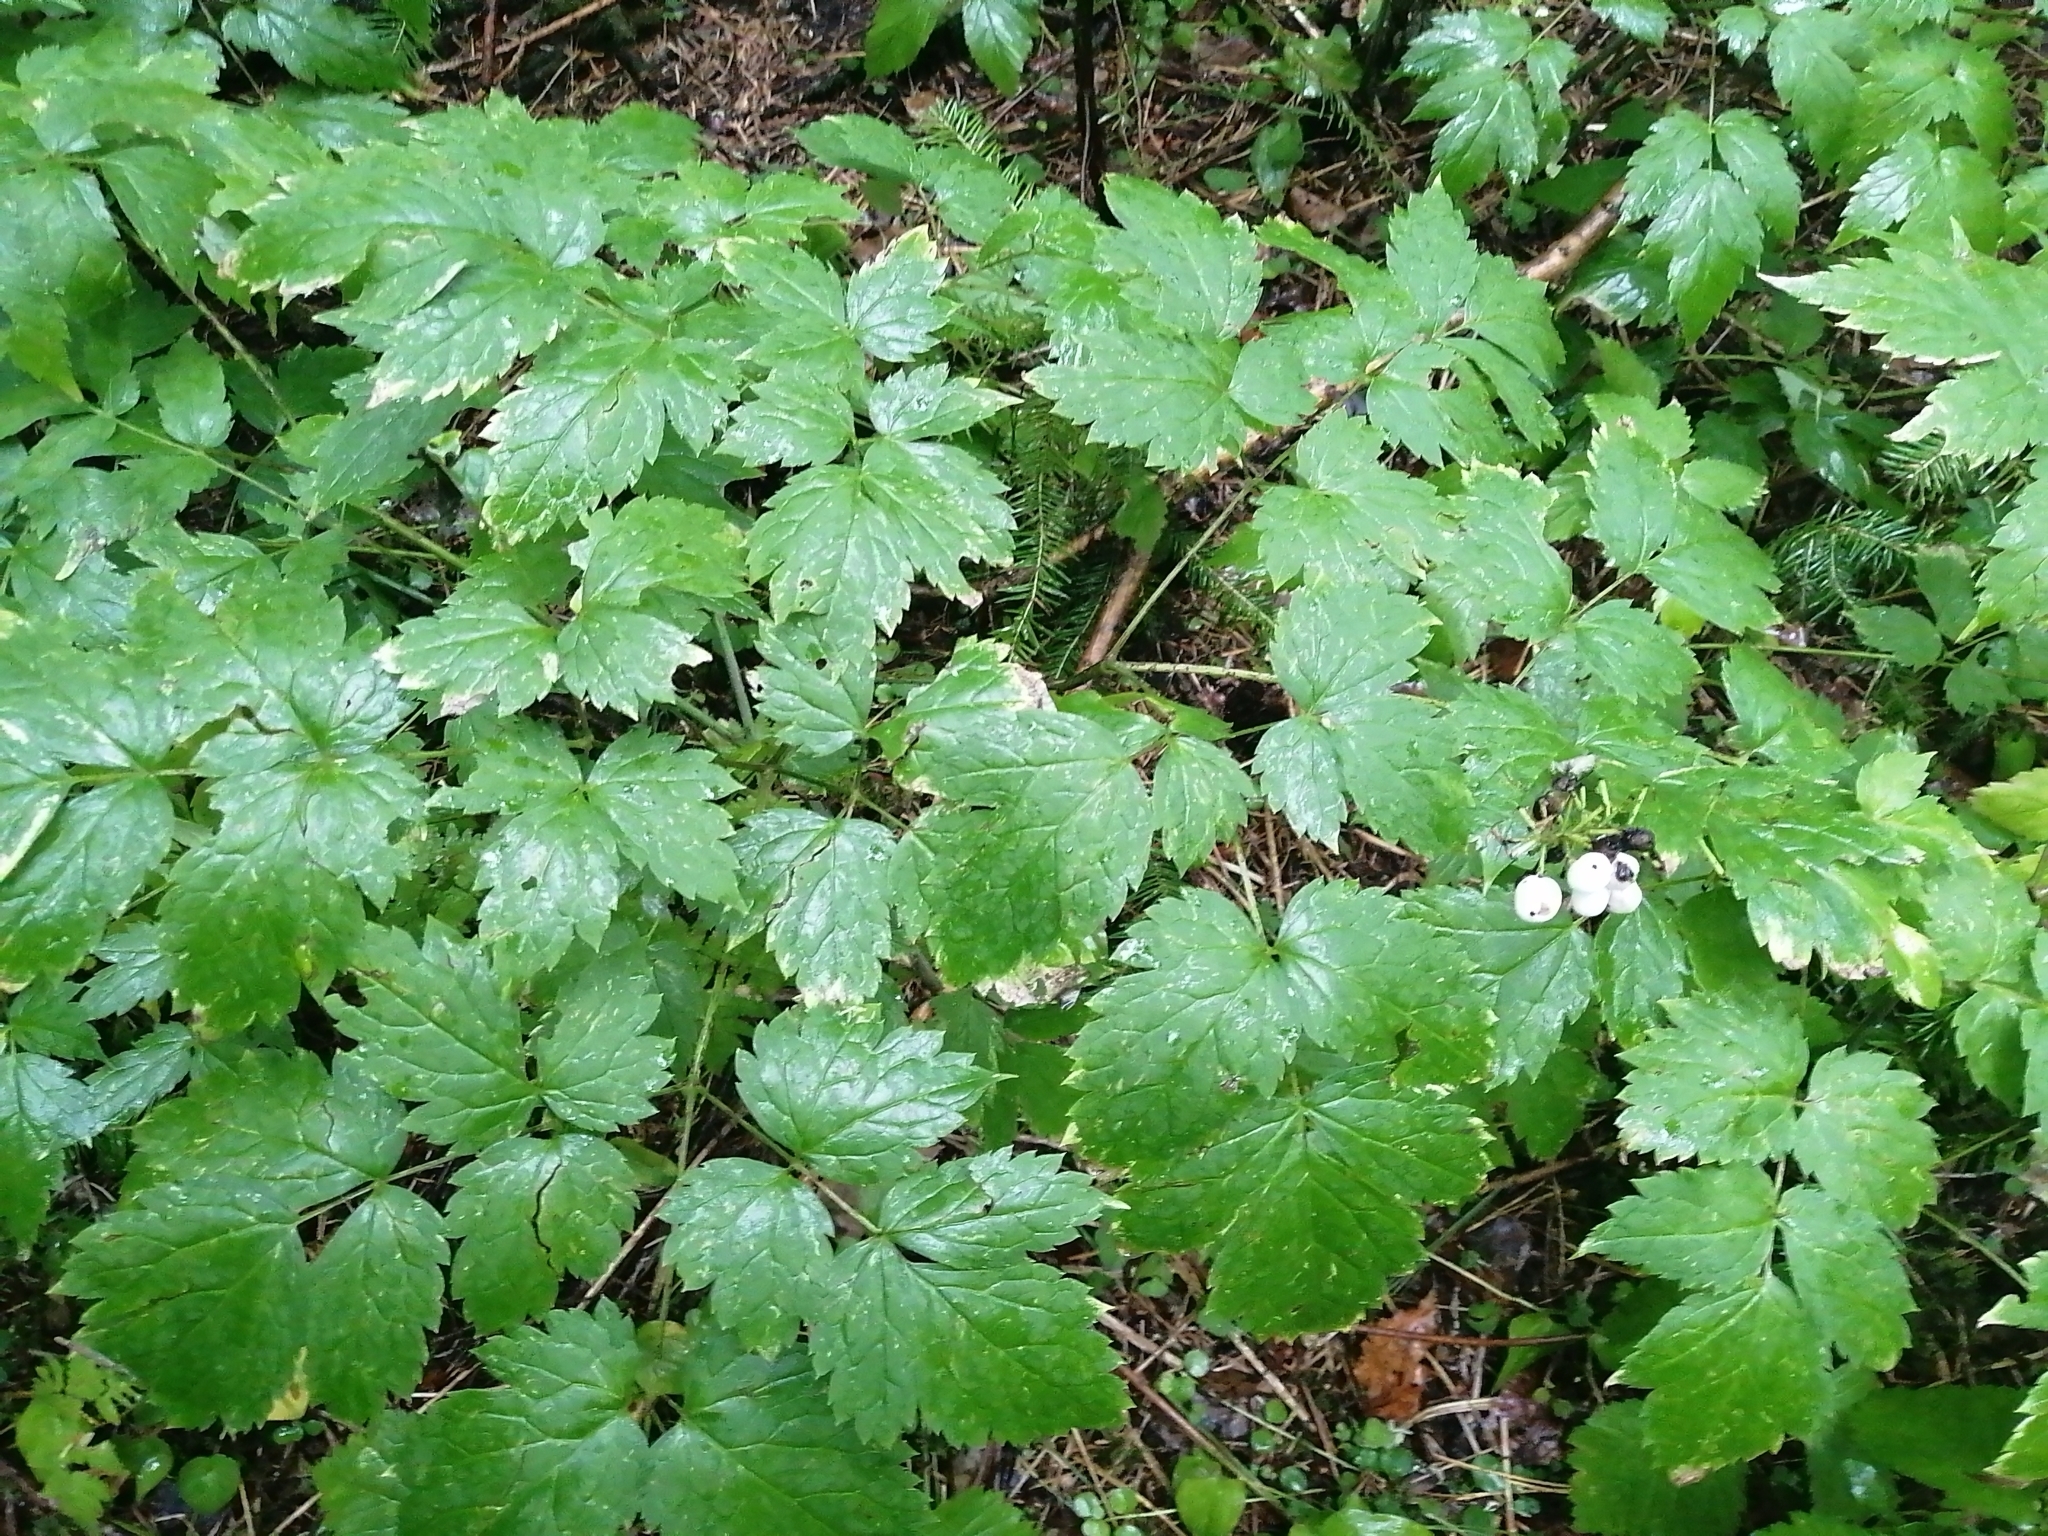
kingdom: Plantae
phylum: Tracheophyta
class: Magnoliopsida
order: Ranunculales
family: Ranunculaceae
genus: Actaea
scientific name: Actaea erythrocarpa
